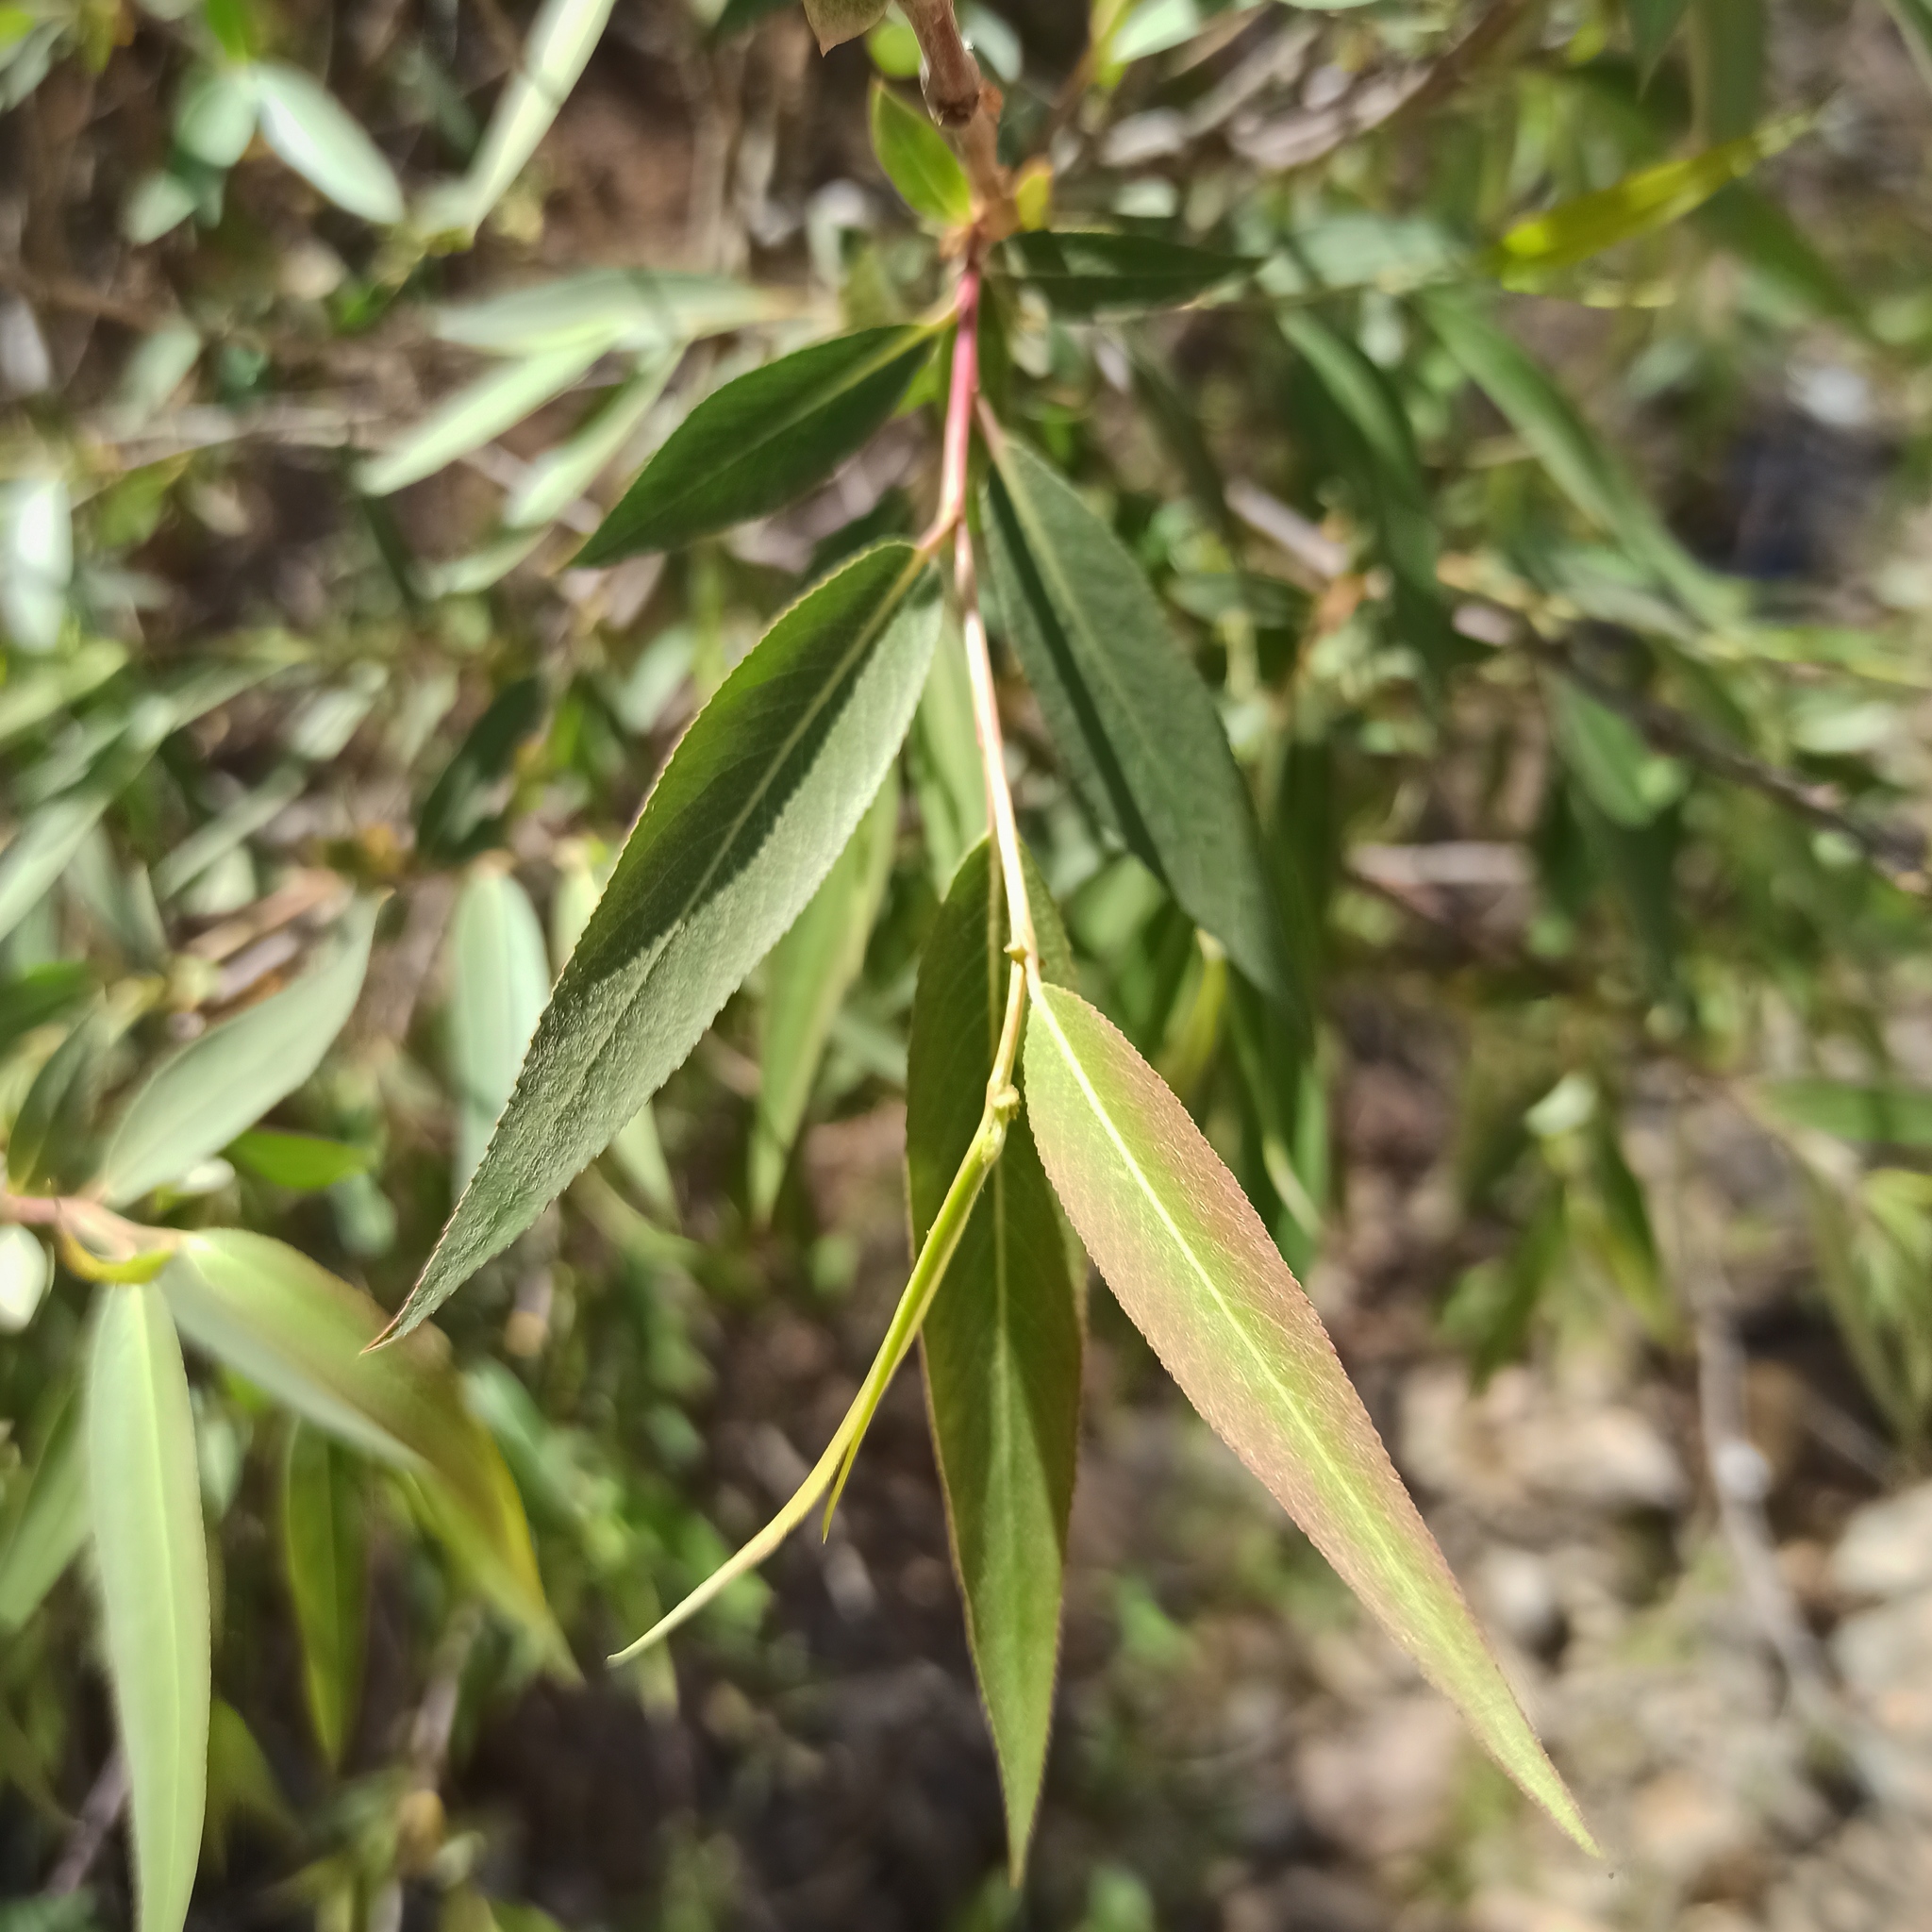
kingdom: Plantae
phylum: Tracheophyta
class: Magnoliopsida
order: Malpighiales
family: Salicaceae
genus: Salix
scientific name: Salix humboldtiana
